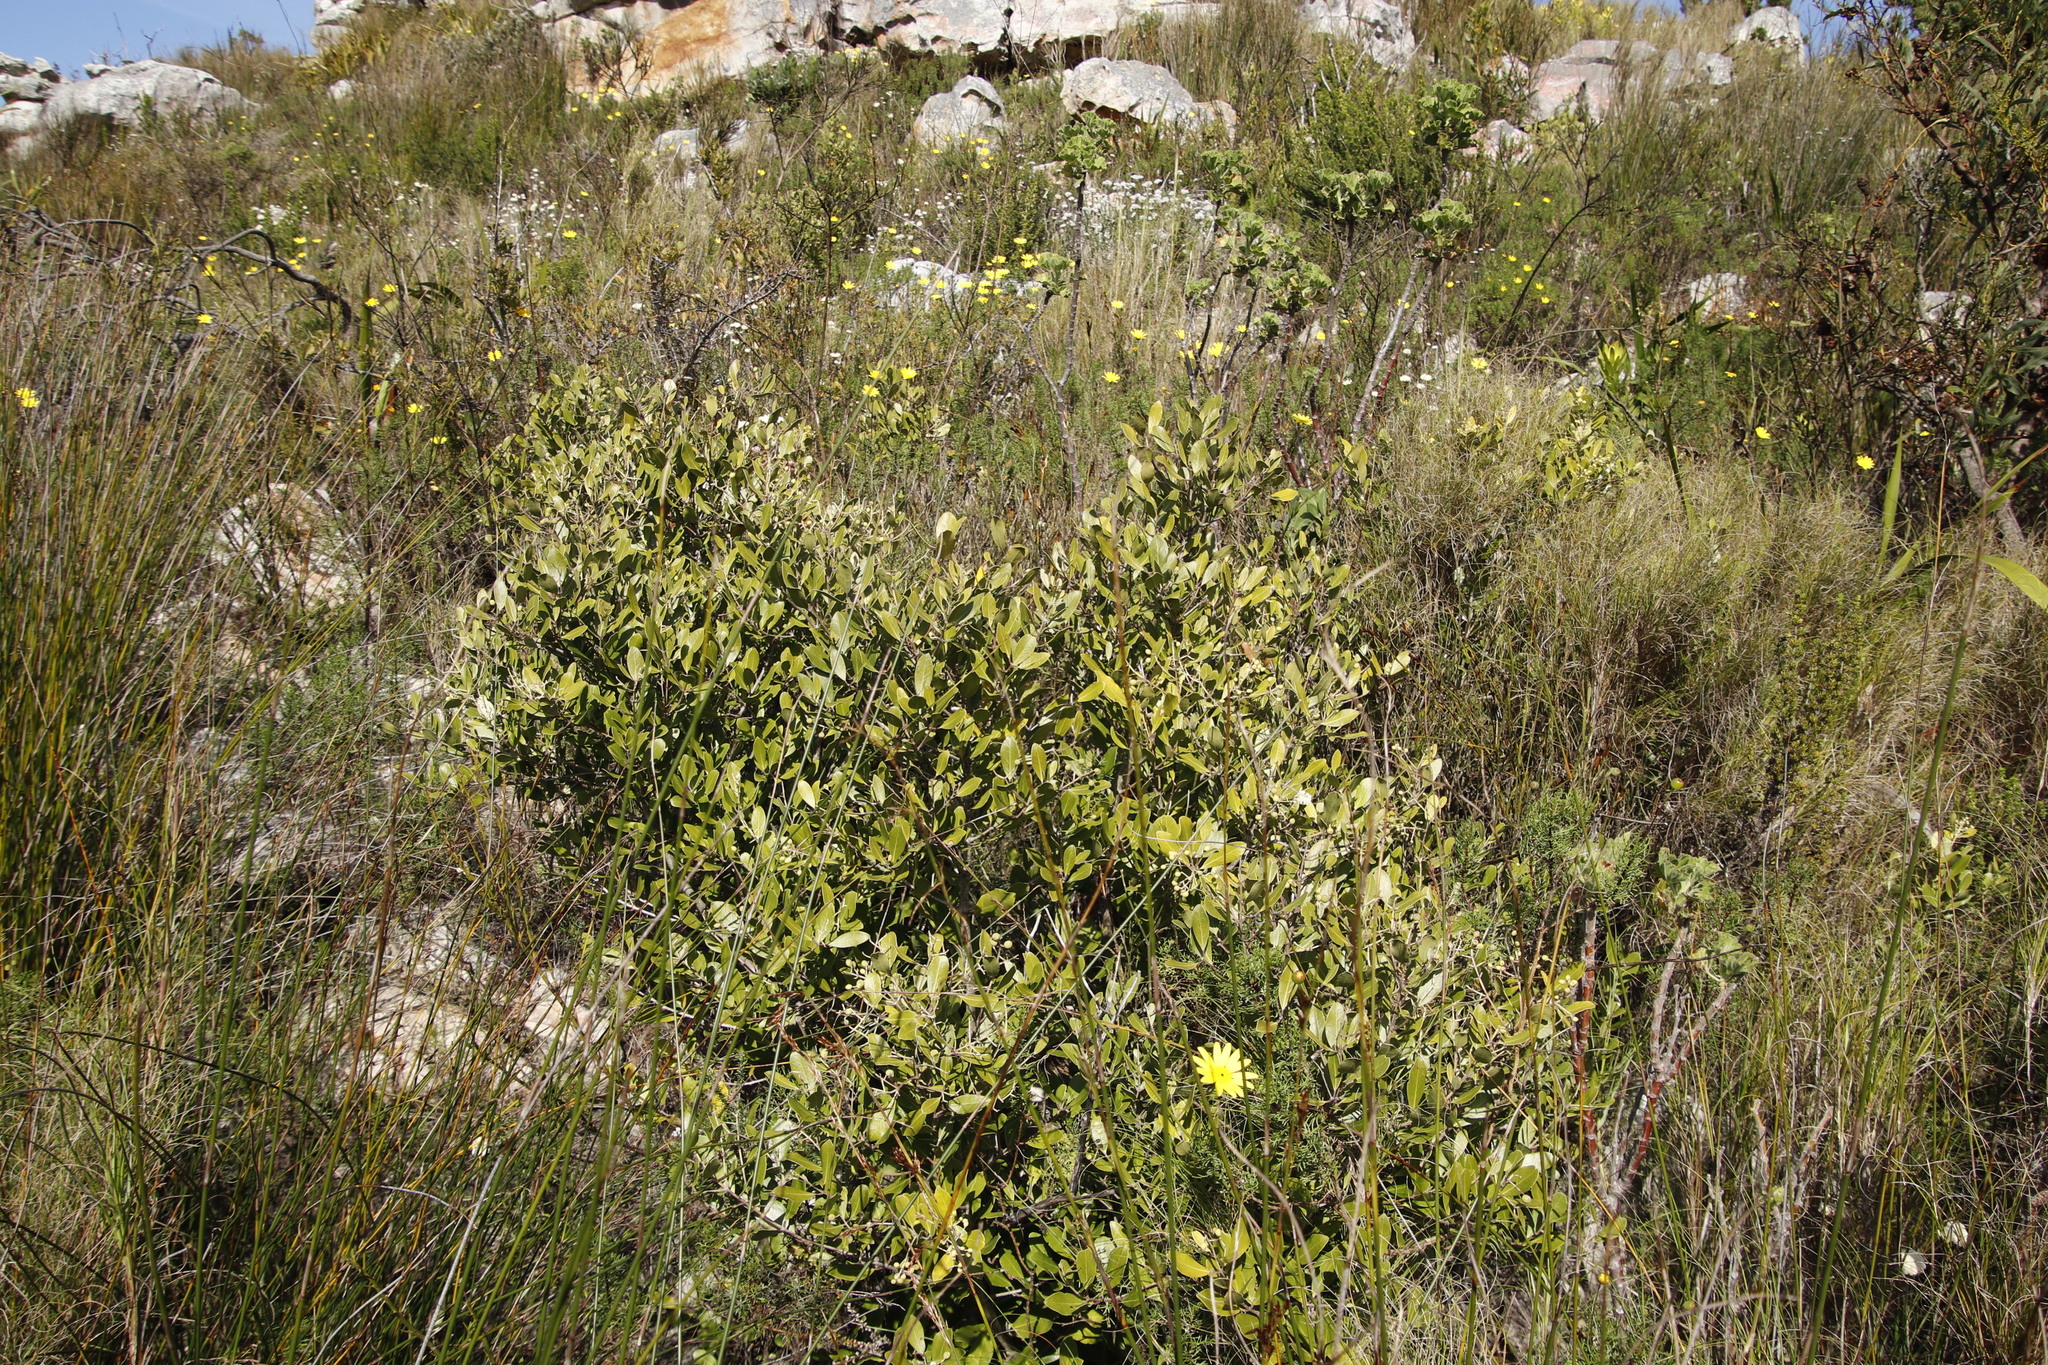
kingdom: Plantae
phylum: Tracheophyta
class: Magnoliopsida
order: Lamiales
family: Oleaceae
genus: Olea
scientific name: Olea capensis
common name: Black ironwood
